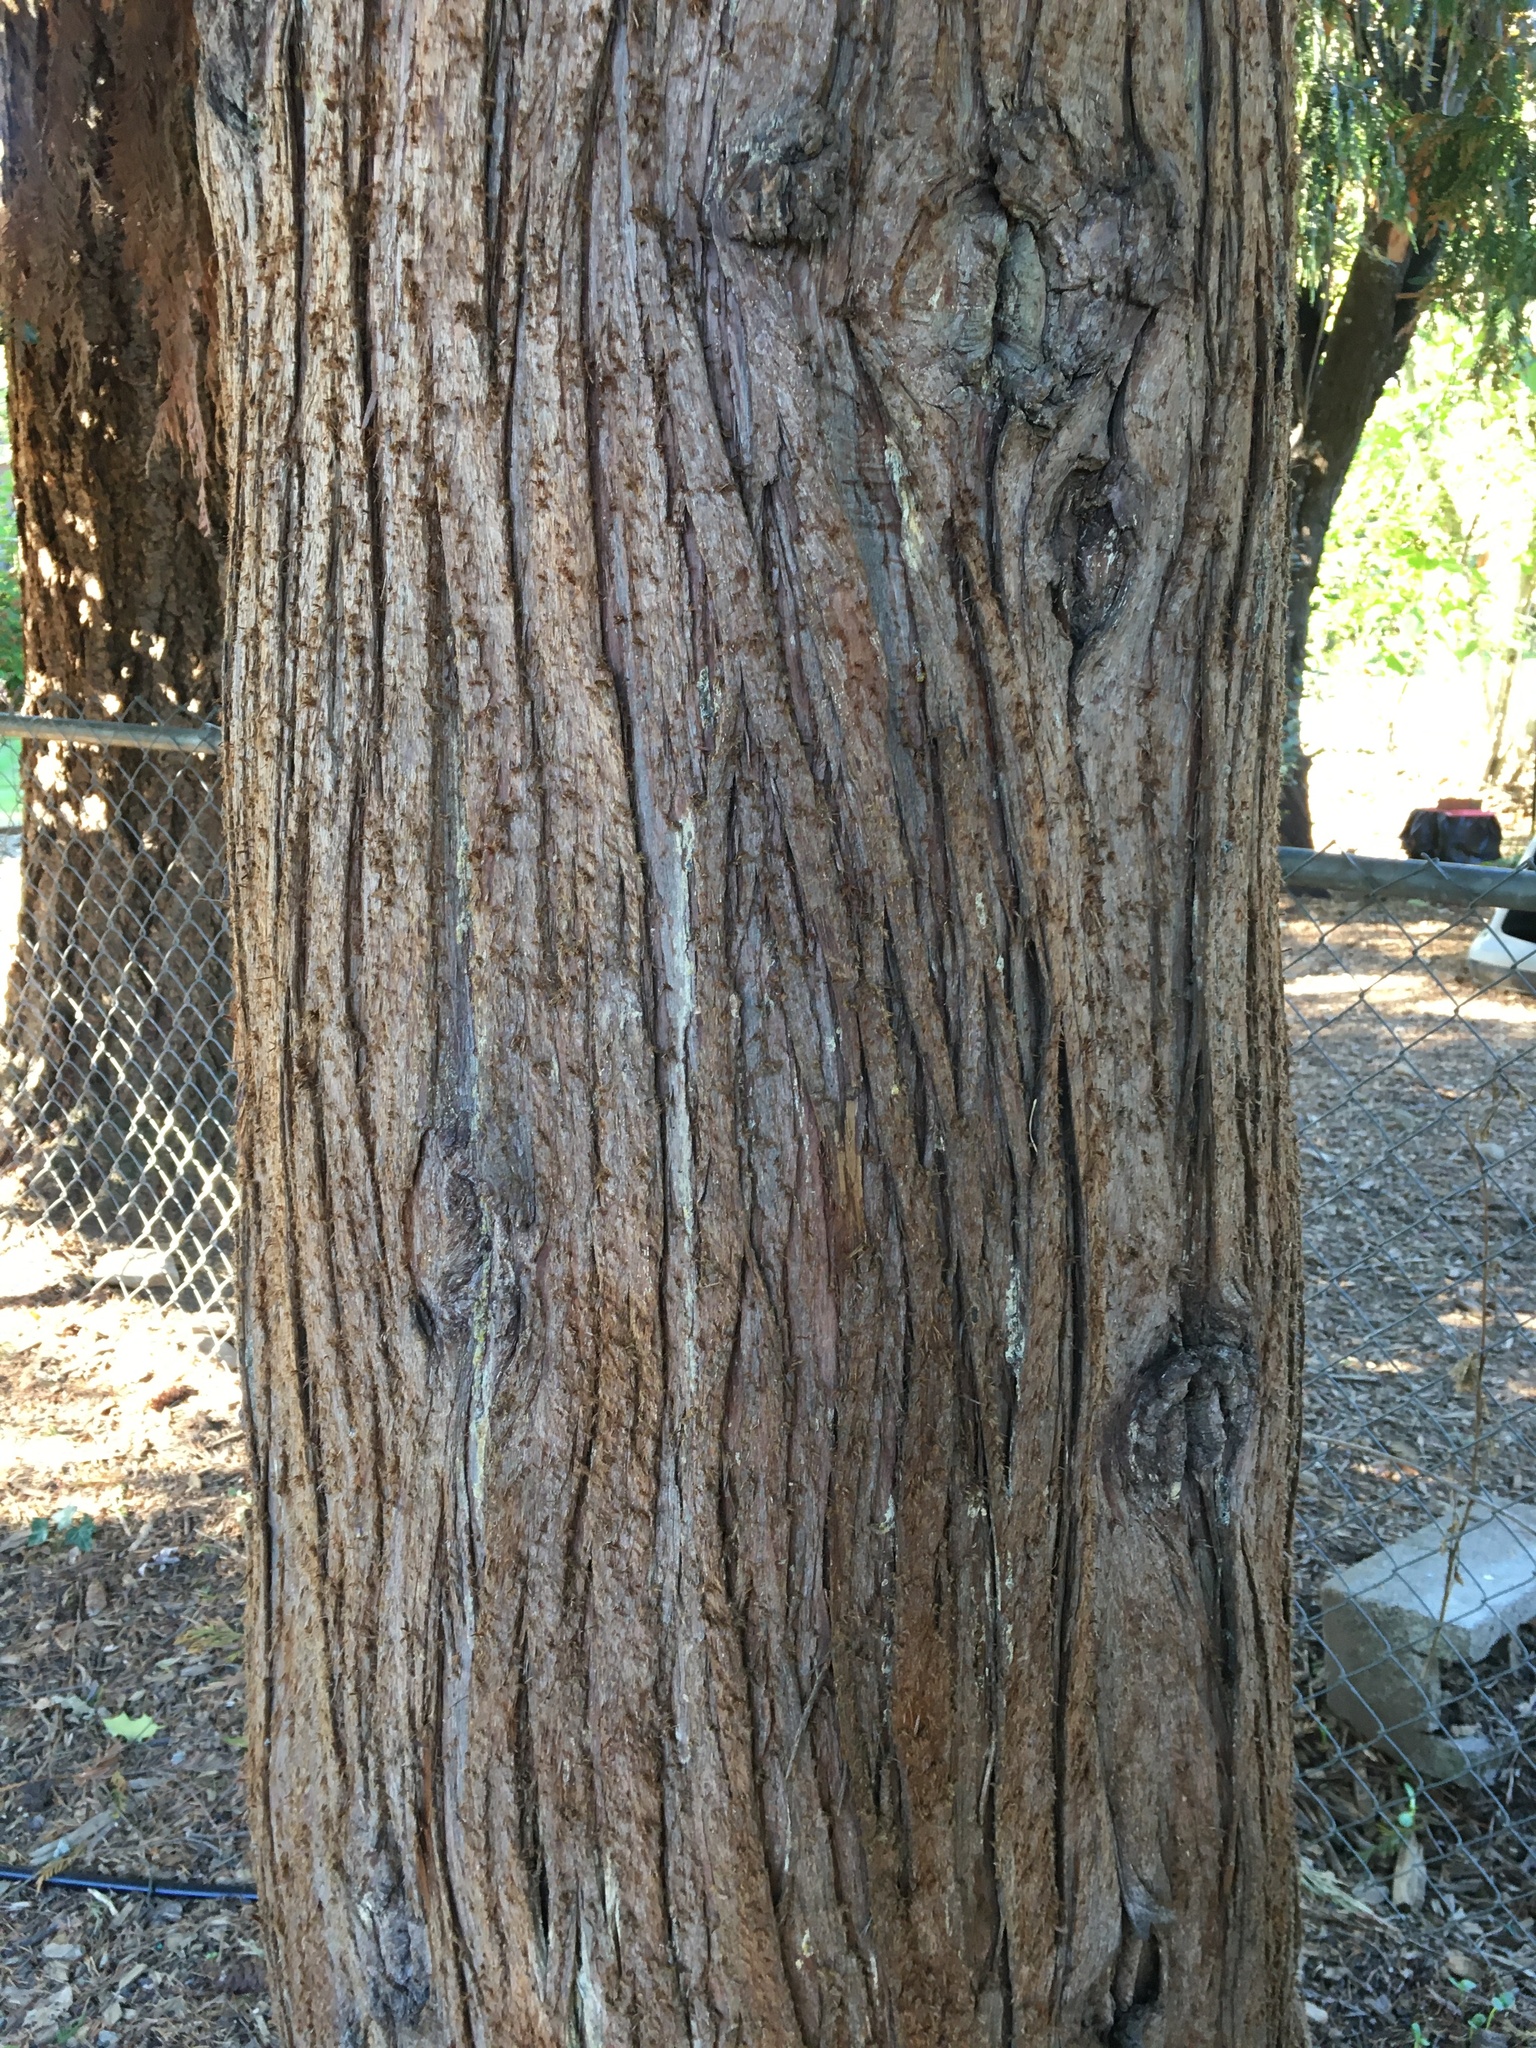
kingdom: Plantae
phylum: Tracheophyta
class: Pinopsida
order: Pinales
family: Cupressaceae
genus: Thuja
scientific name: Thuja plicata
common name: Western red-cedar
